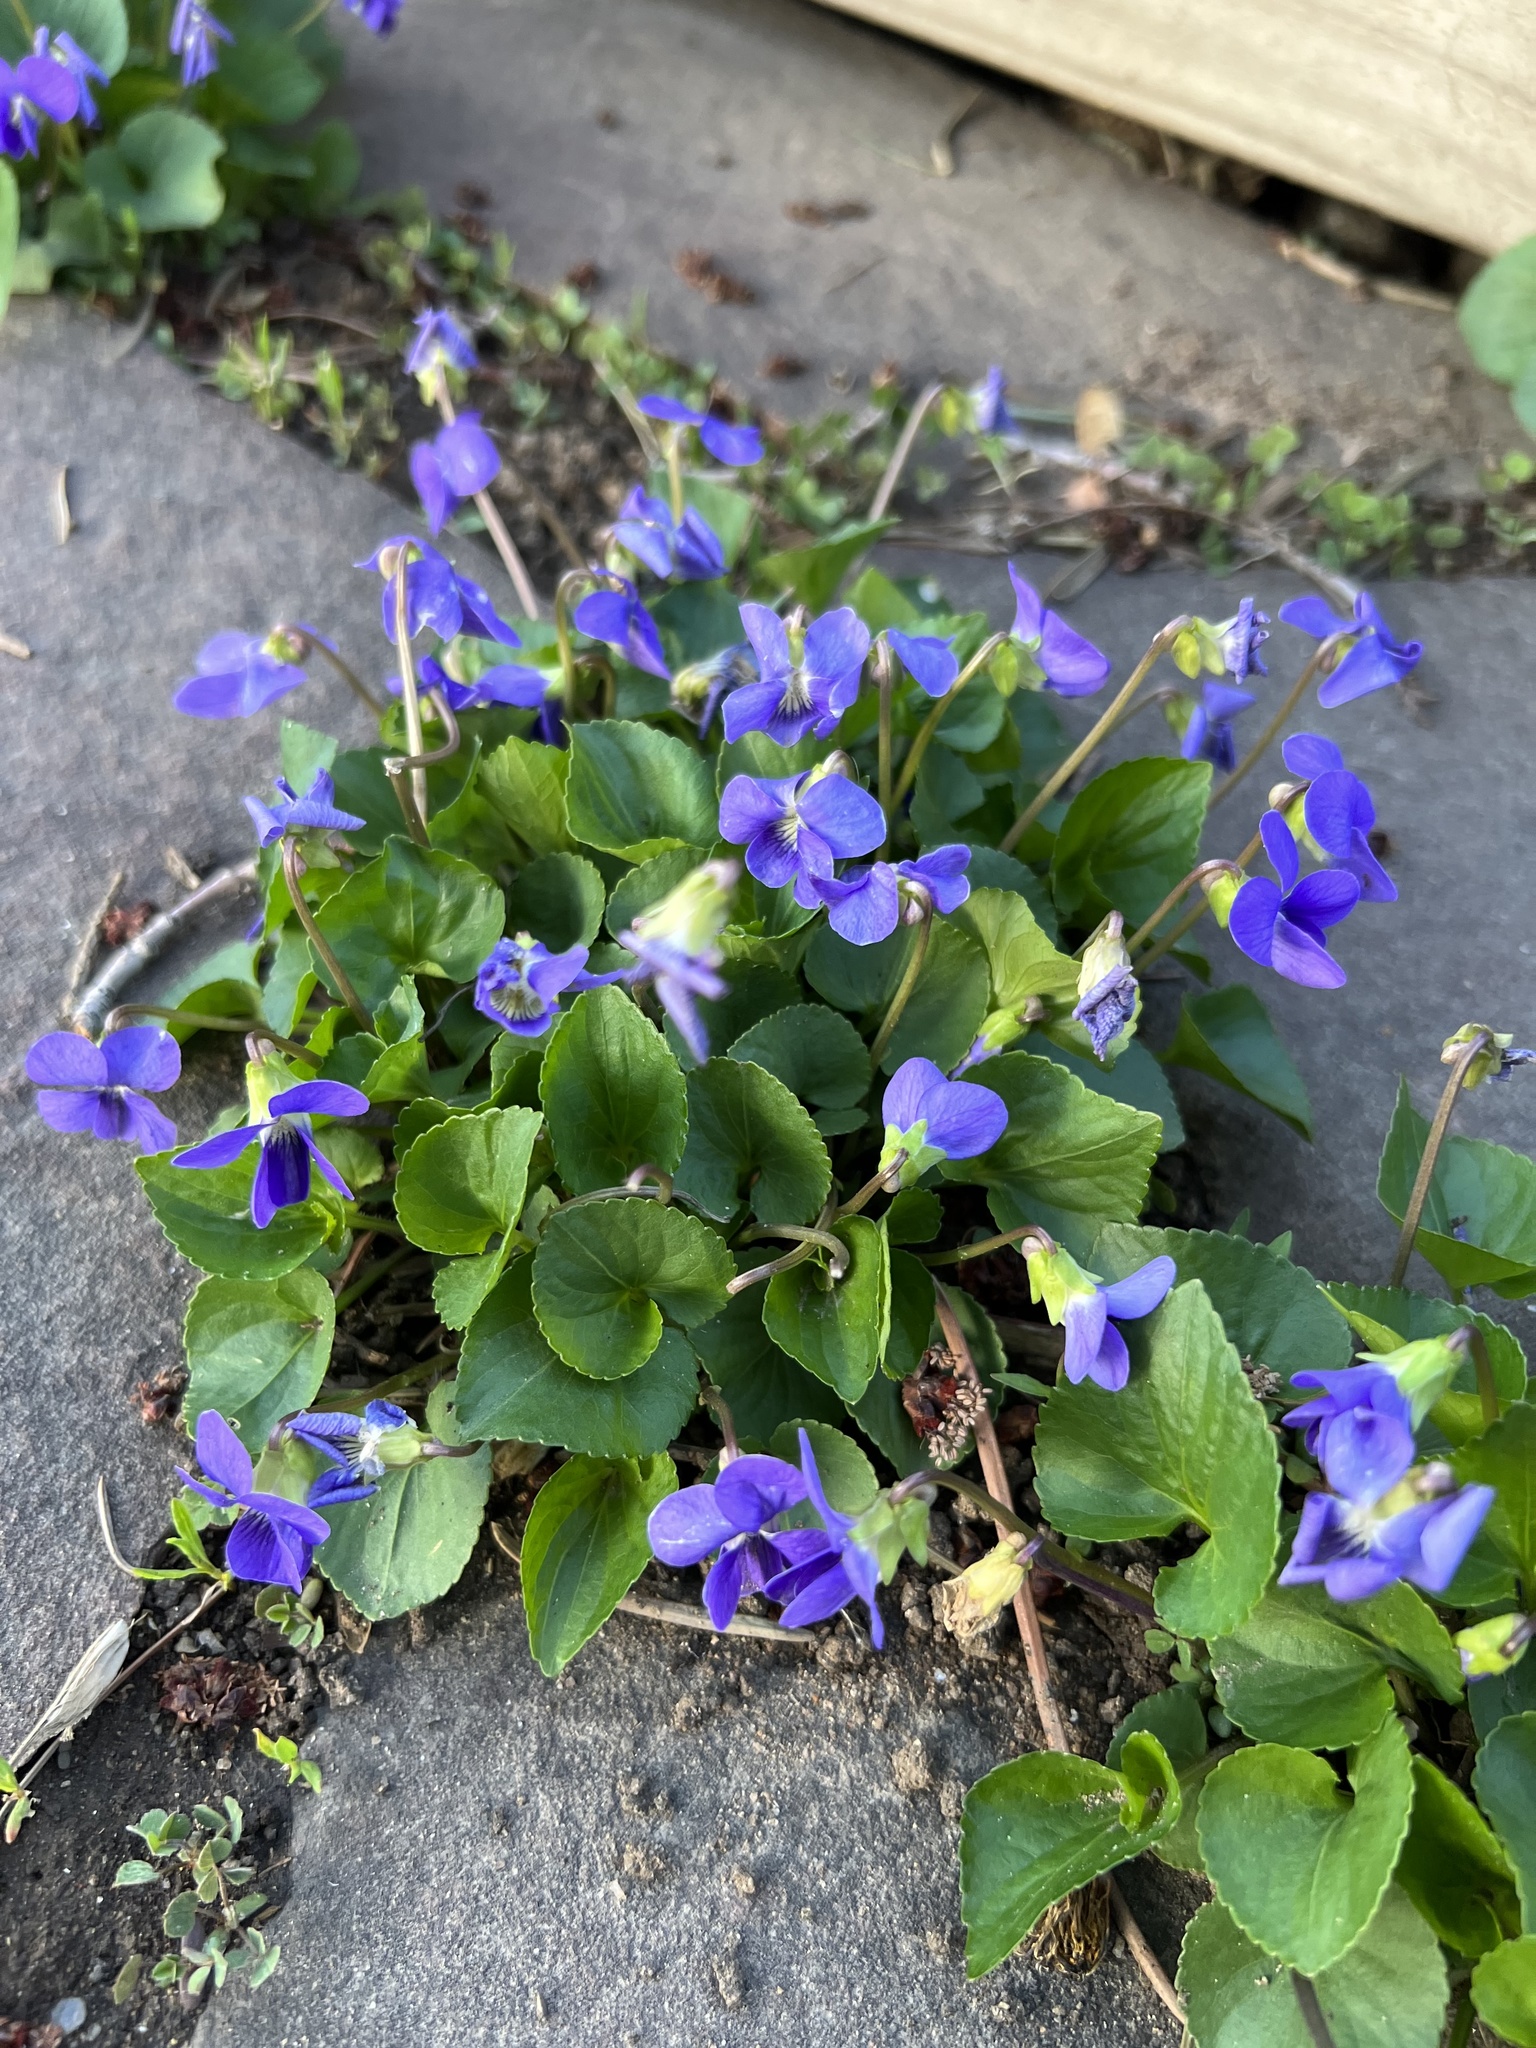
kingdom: Plantae
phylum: Tracheophyta
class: Magnoliopsida
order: Malpighiales
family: Violaceae
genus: Viola
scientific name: Viola sororia
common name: Dooryard violet
